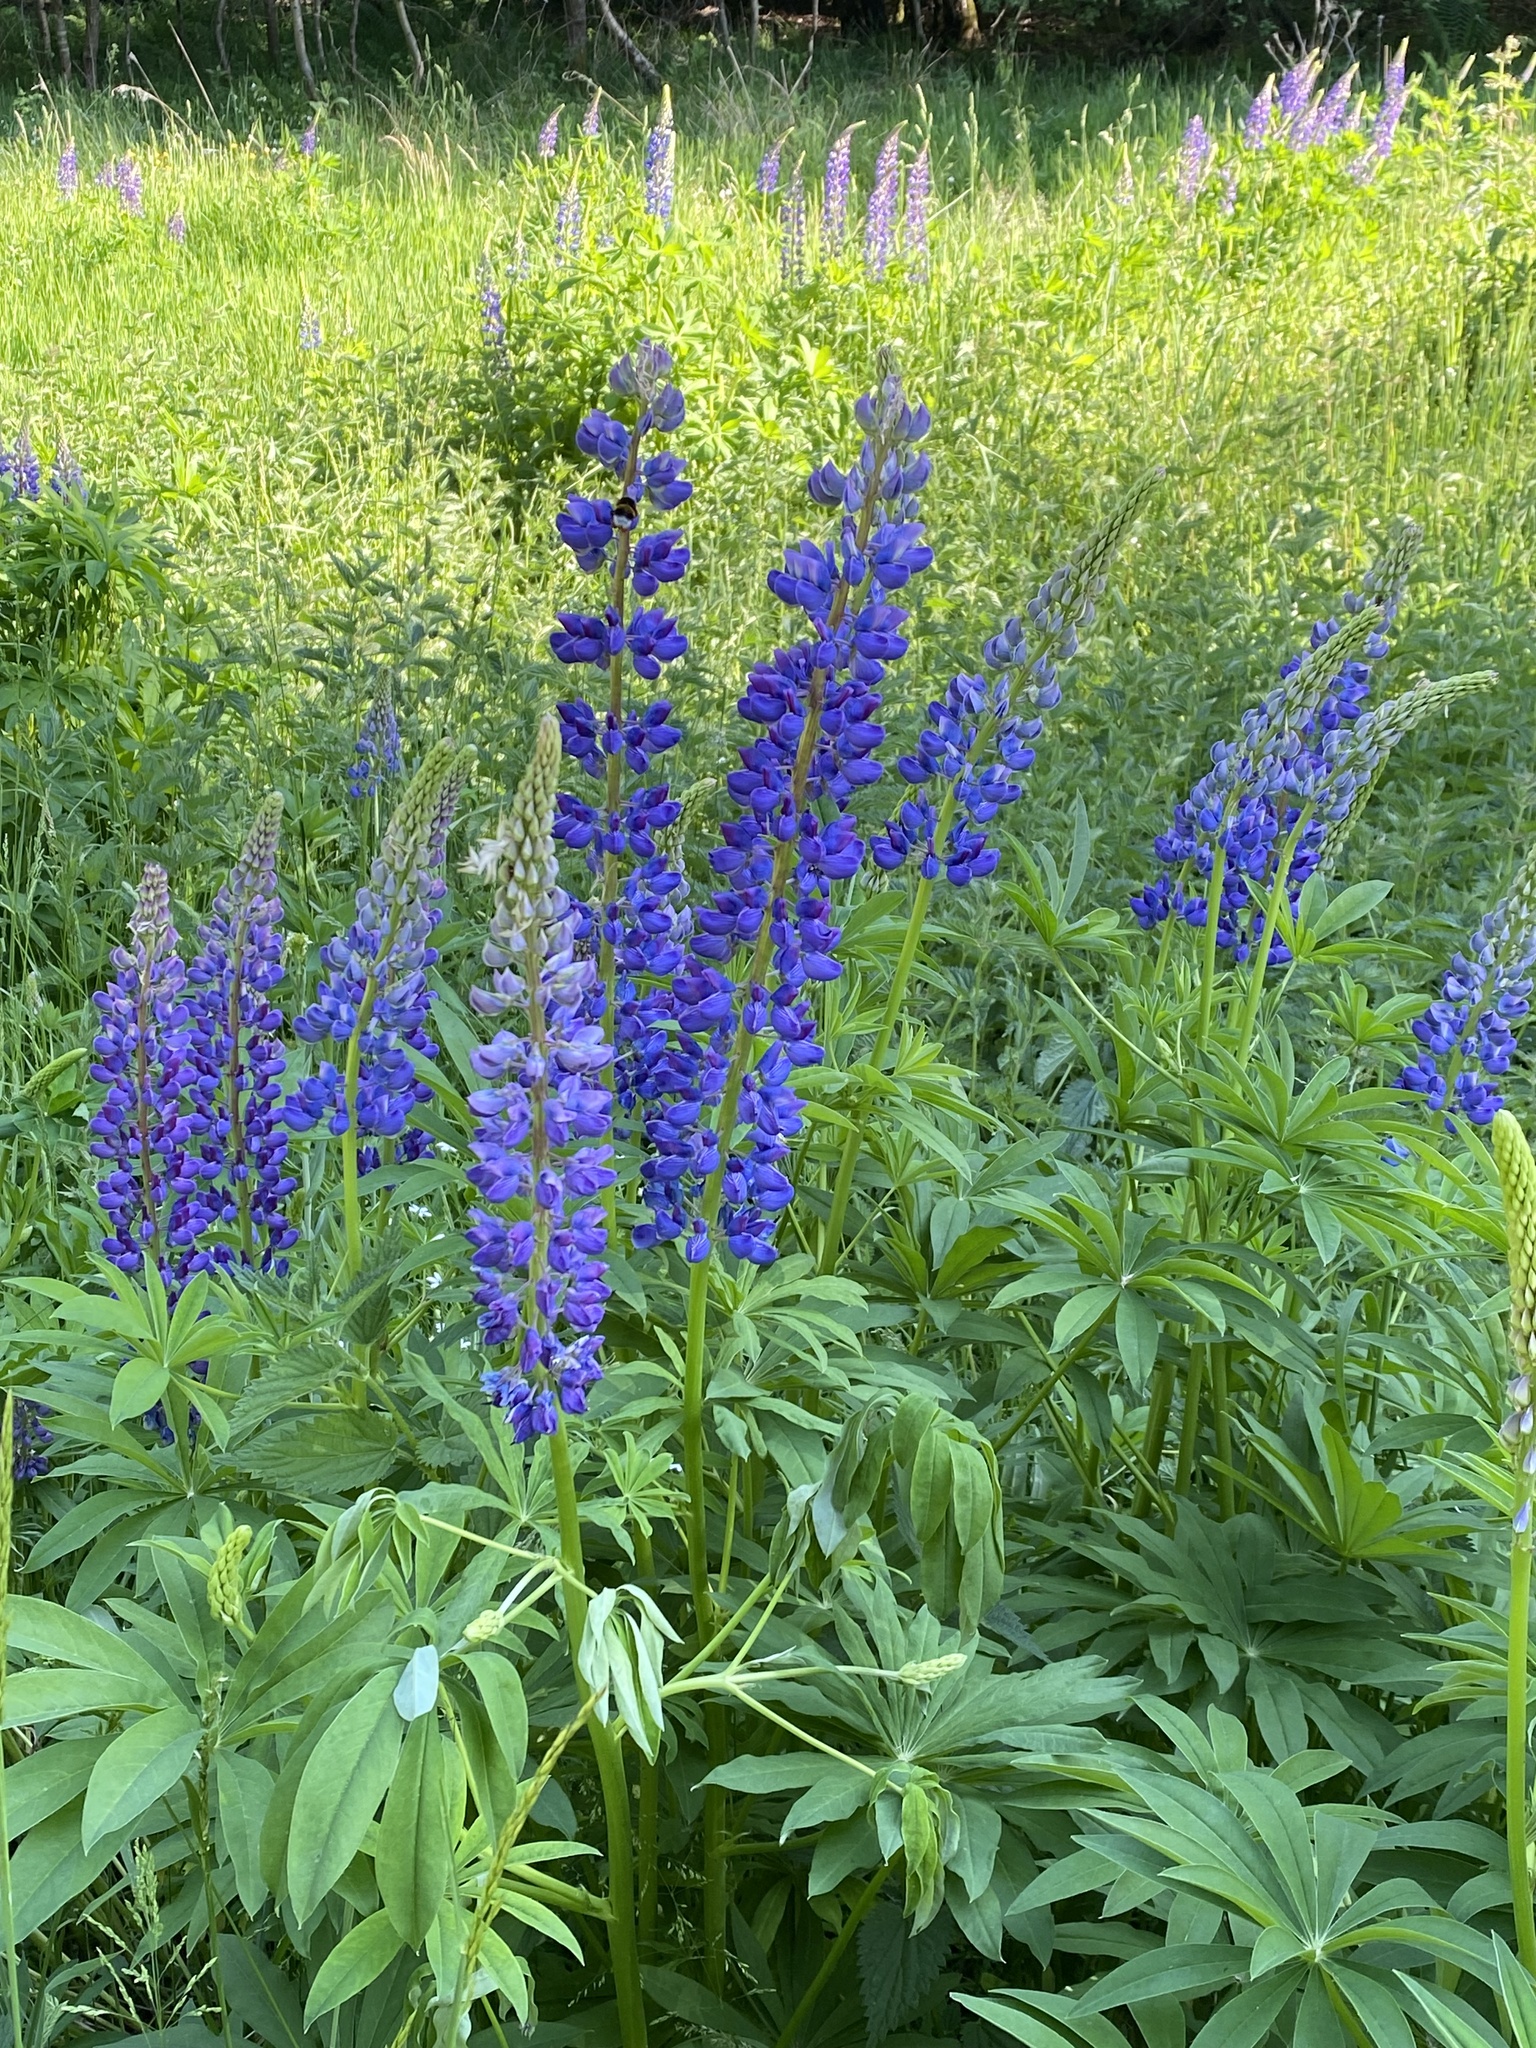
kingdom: Plantae
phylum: Tracheophyta
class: Magnoliopsida
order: Fabales
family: Fabaceae
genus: Lupinus
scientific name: Lupinus polyphyllus
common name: Garden lupin
